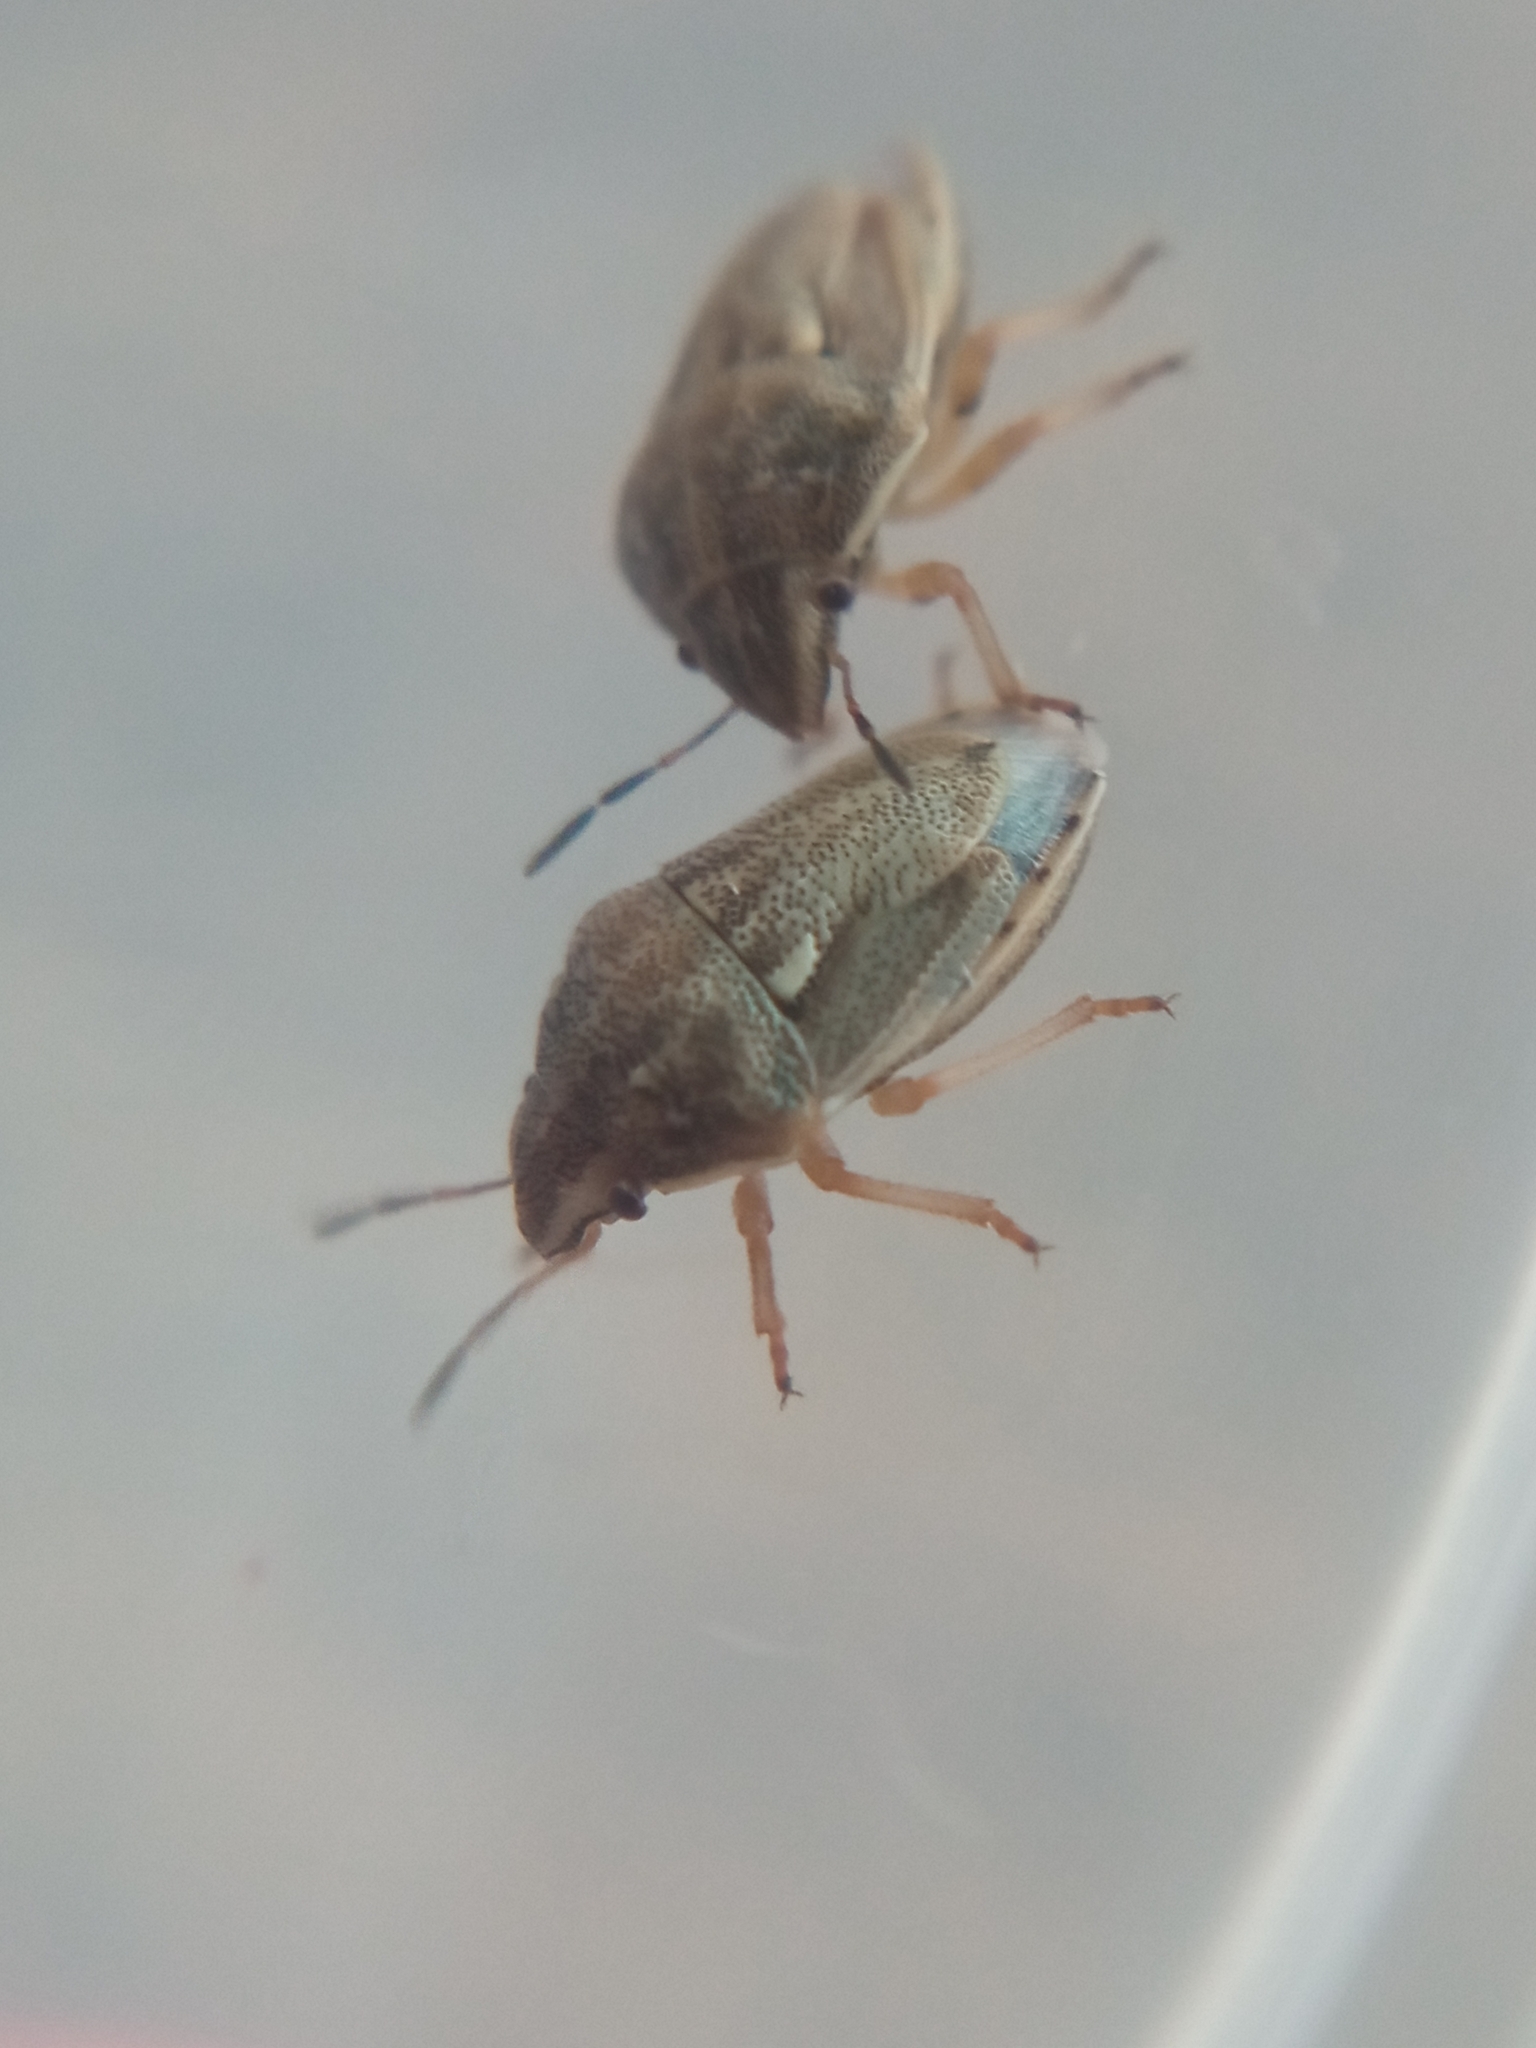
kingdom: Animalia
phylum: Arthropoda
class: Insecta
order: Hemiptera
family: Pentatomidae
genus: Neottiglossa
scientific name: Neottiglossa leporina
